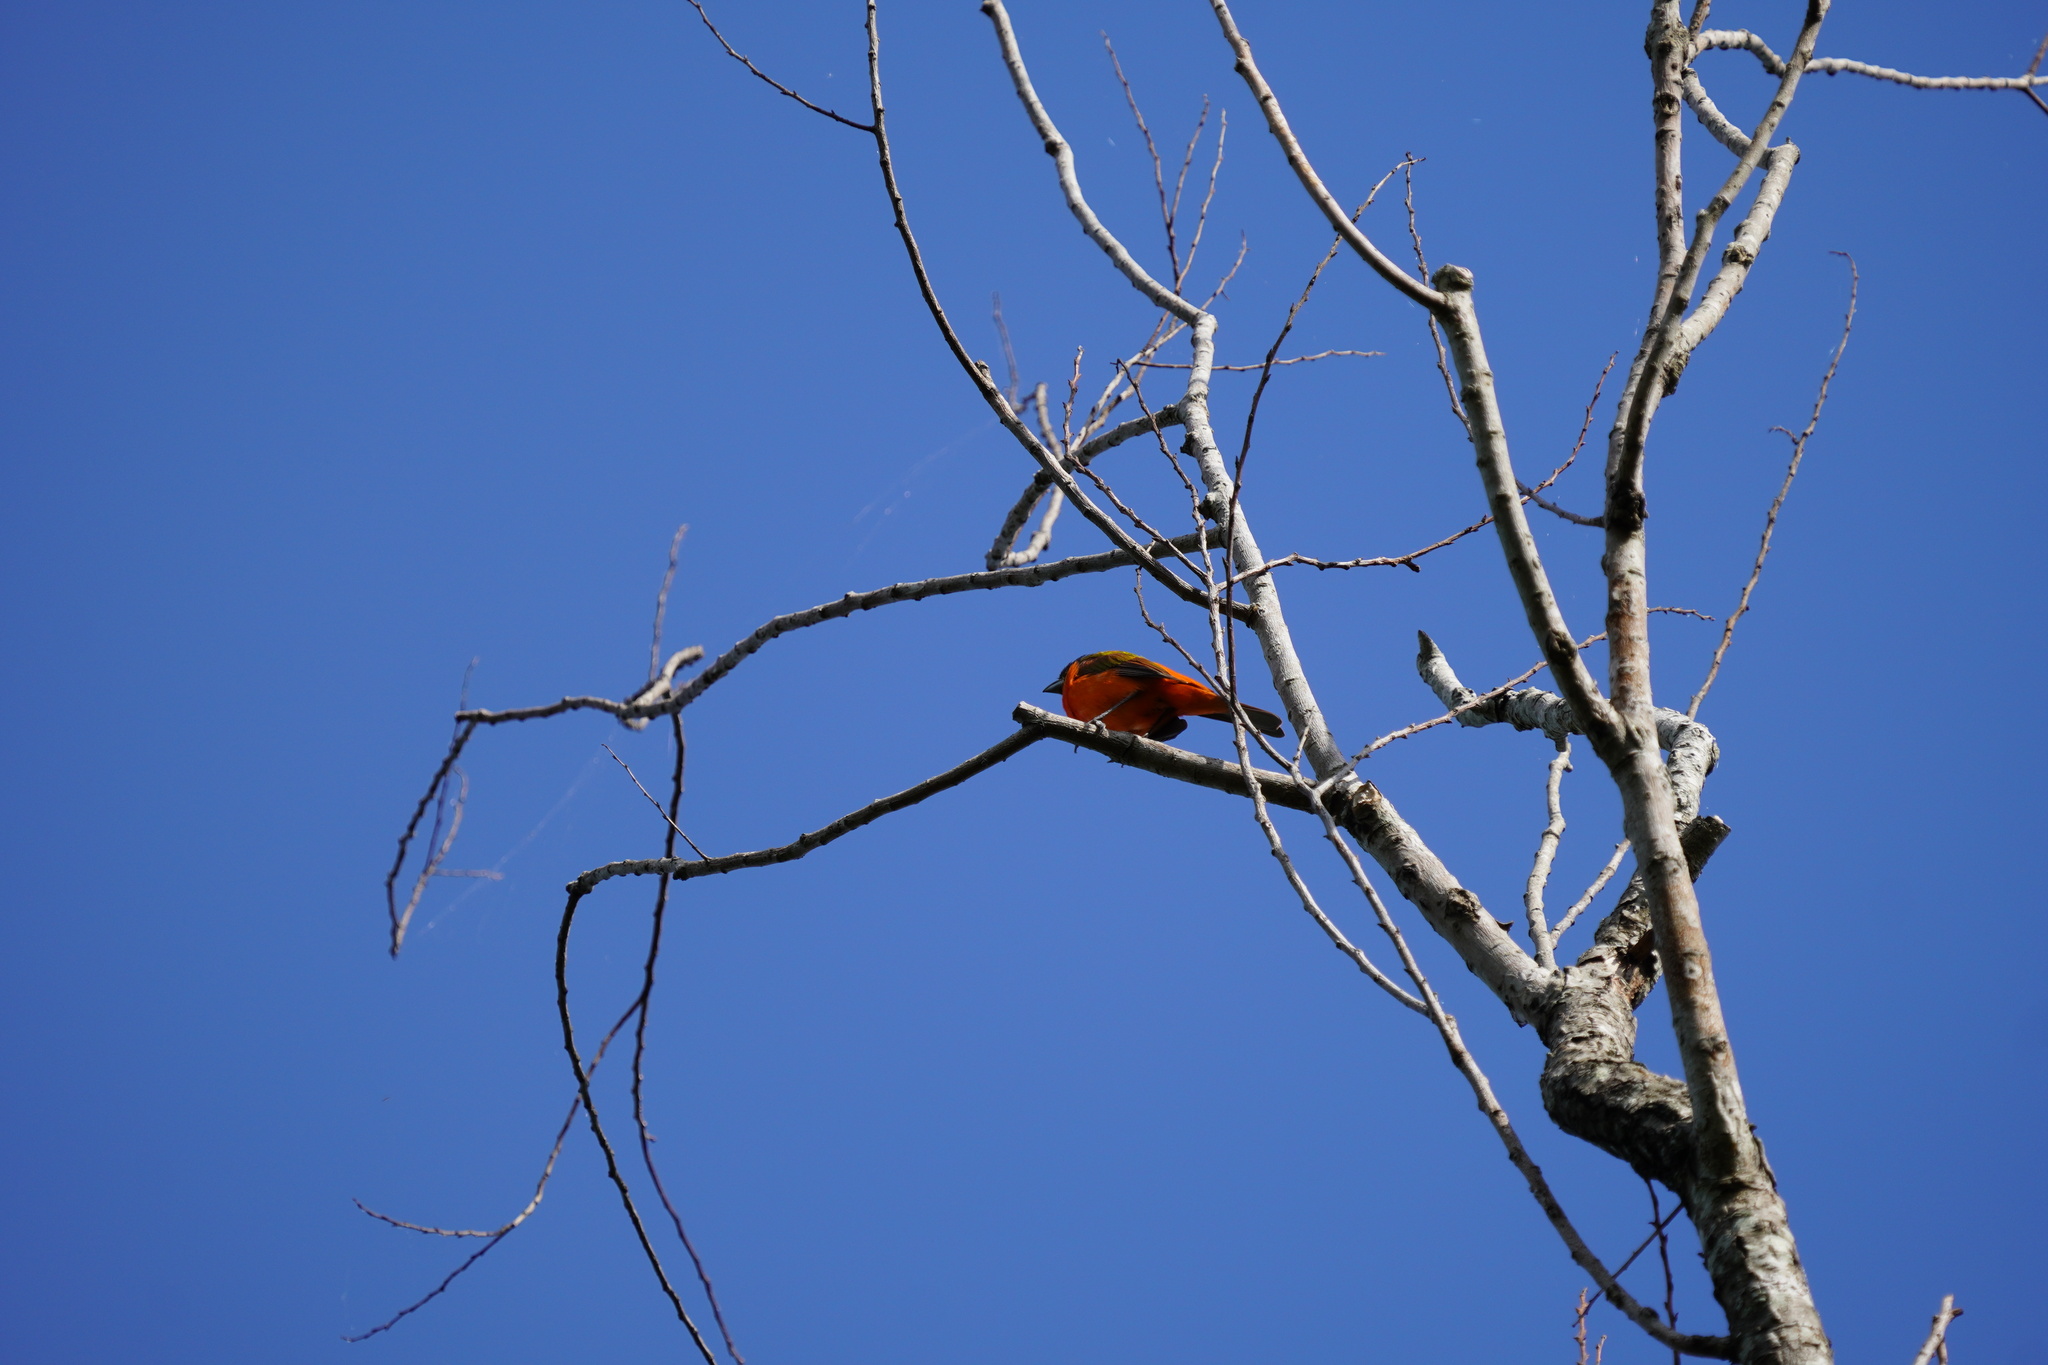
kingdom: Animalia
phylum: Chordata
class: Aves
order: Passeriformes
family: Cardinalidae
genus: Passerina
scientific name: Passerina ciris
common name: Painted bunting
